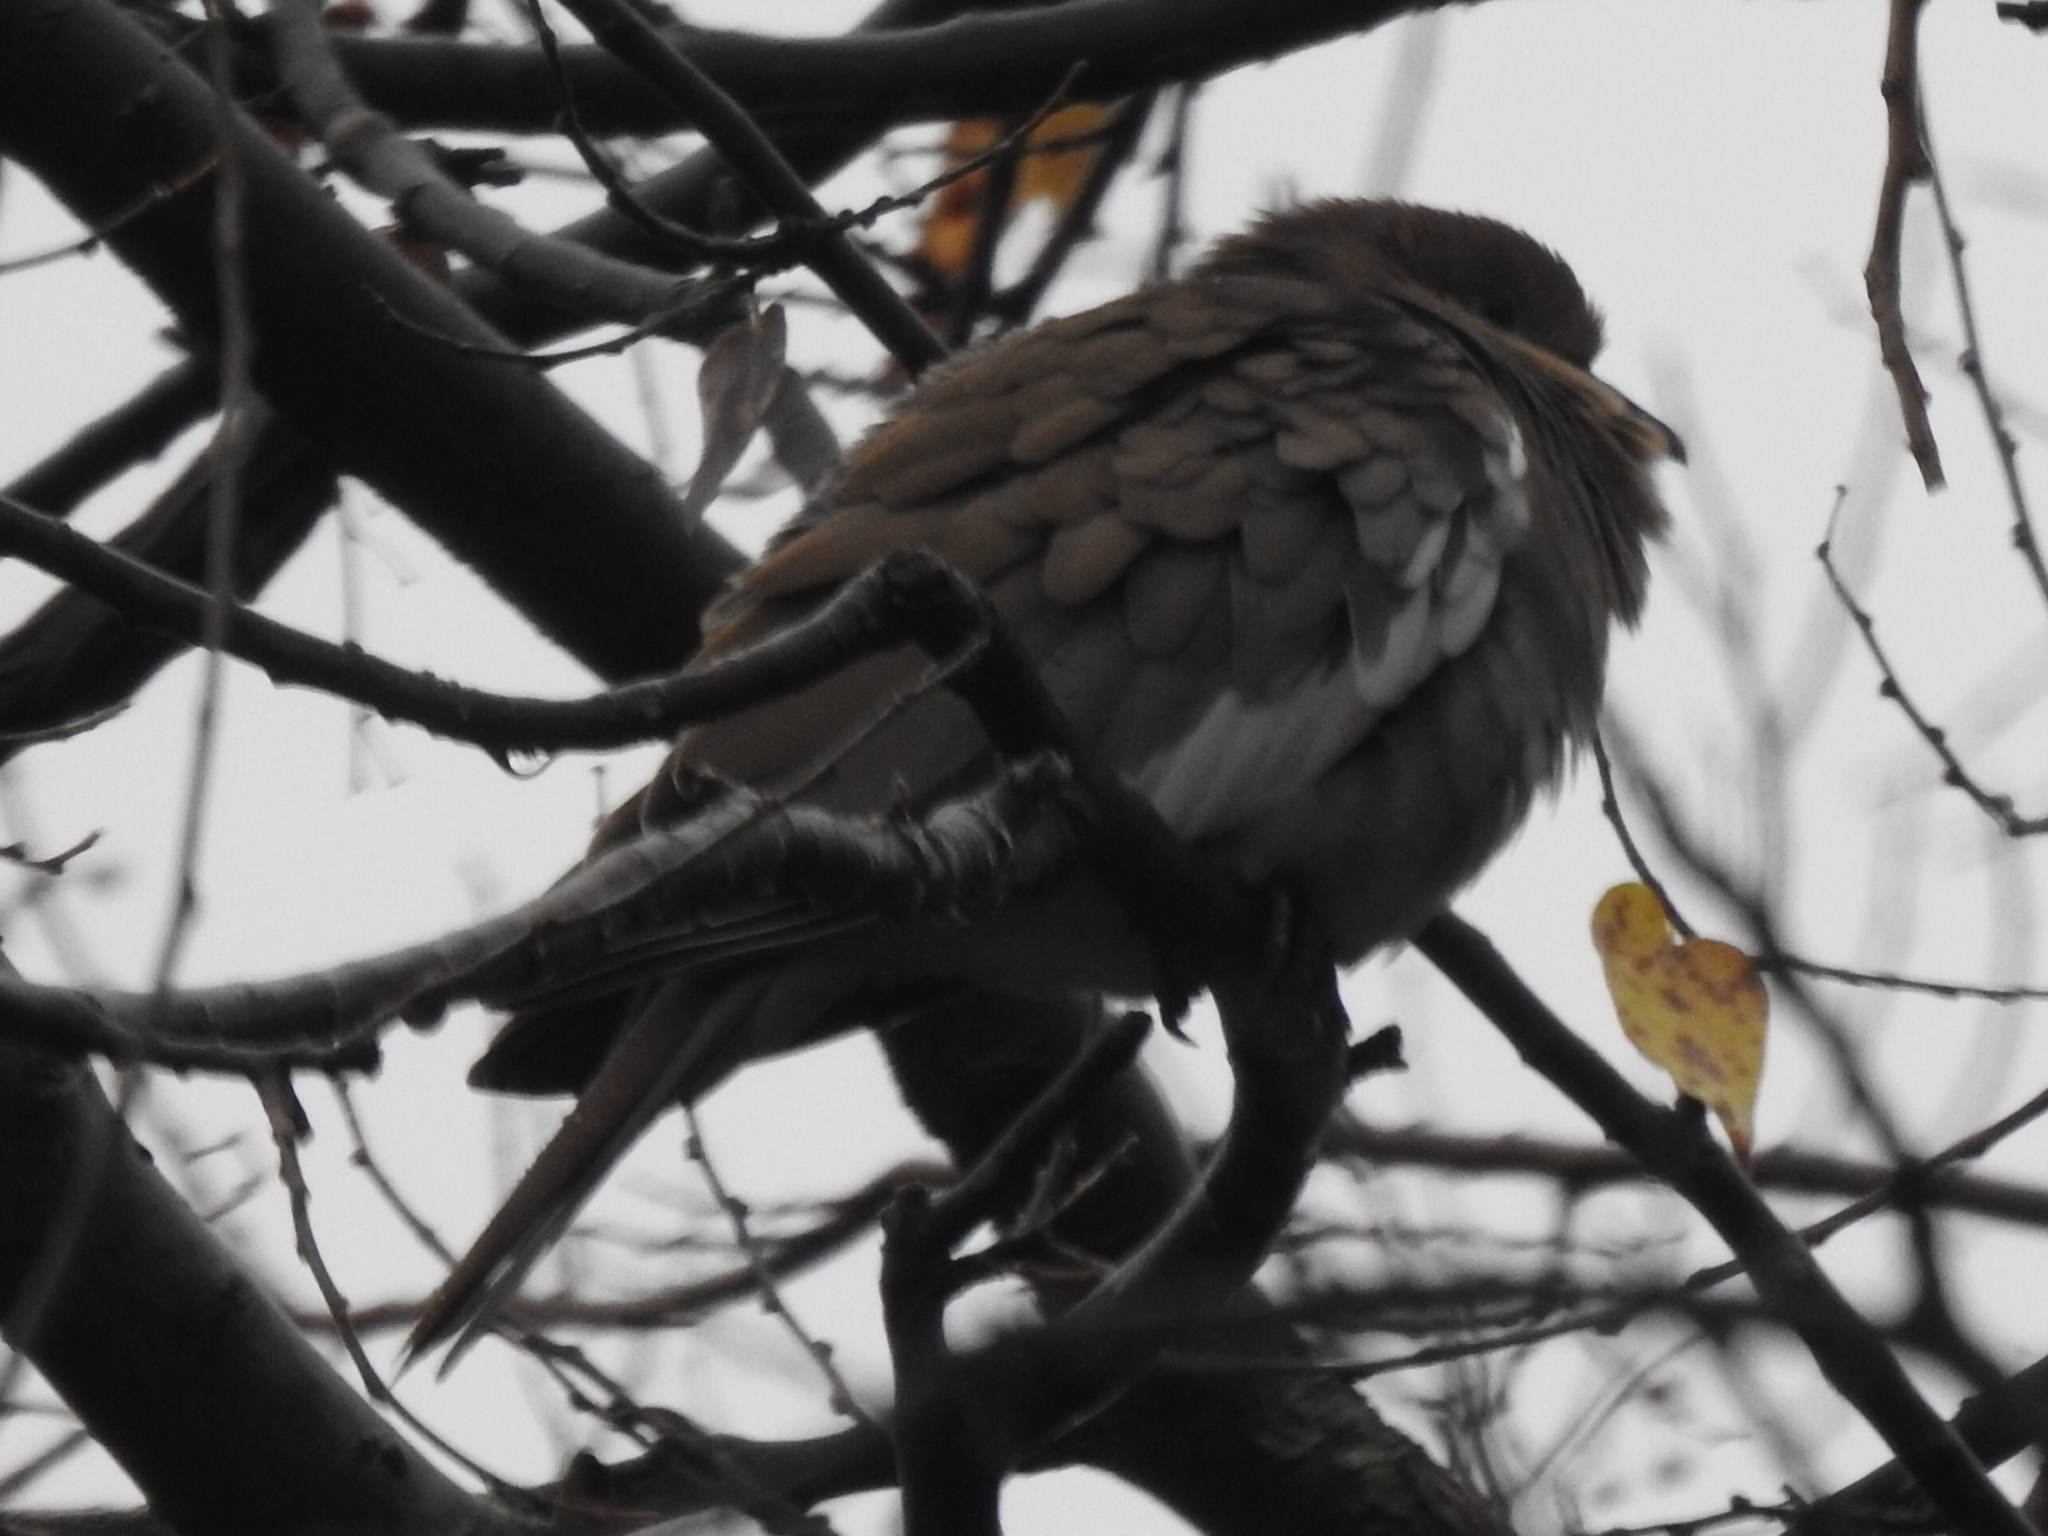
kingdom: Animalia
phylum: Chordata
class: Aves
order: Columbiformes
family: Columbidae
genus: Zenaida
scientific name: Zenaida asiatica
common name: White-winged dove
